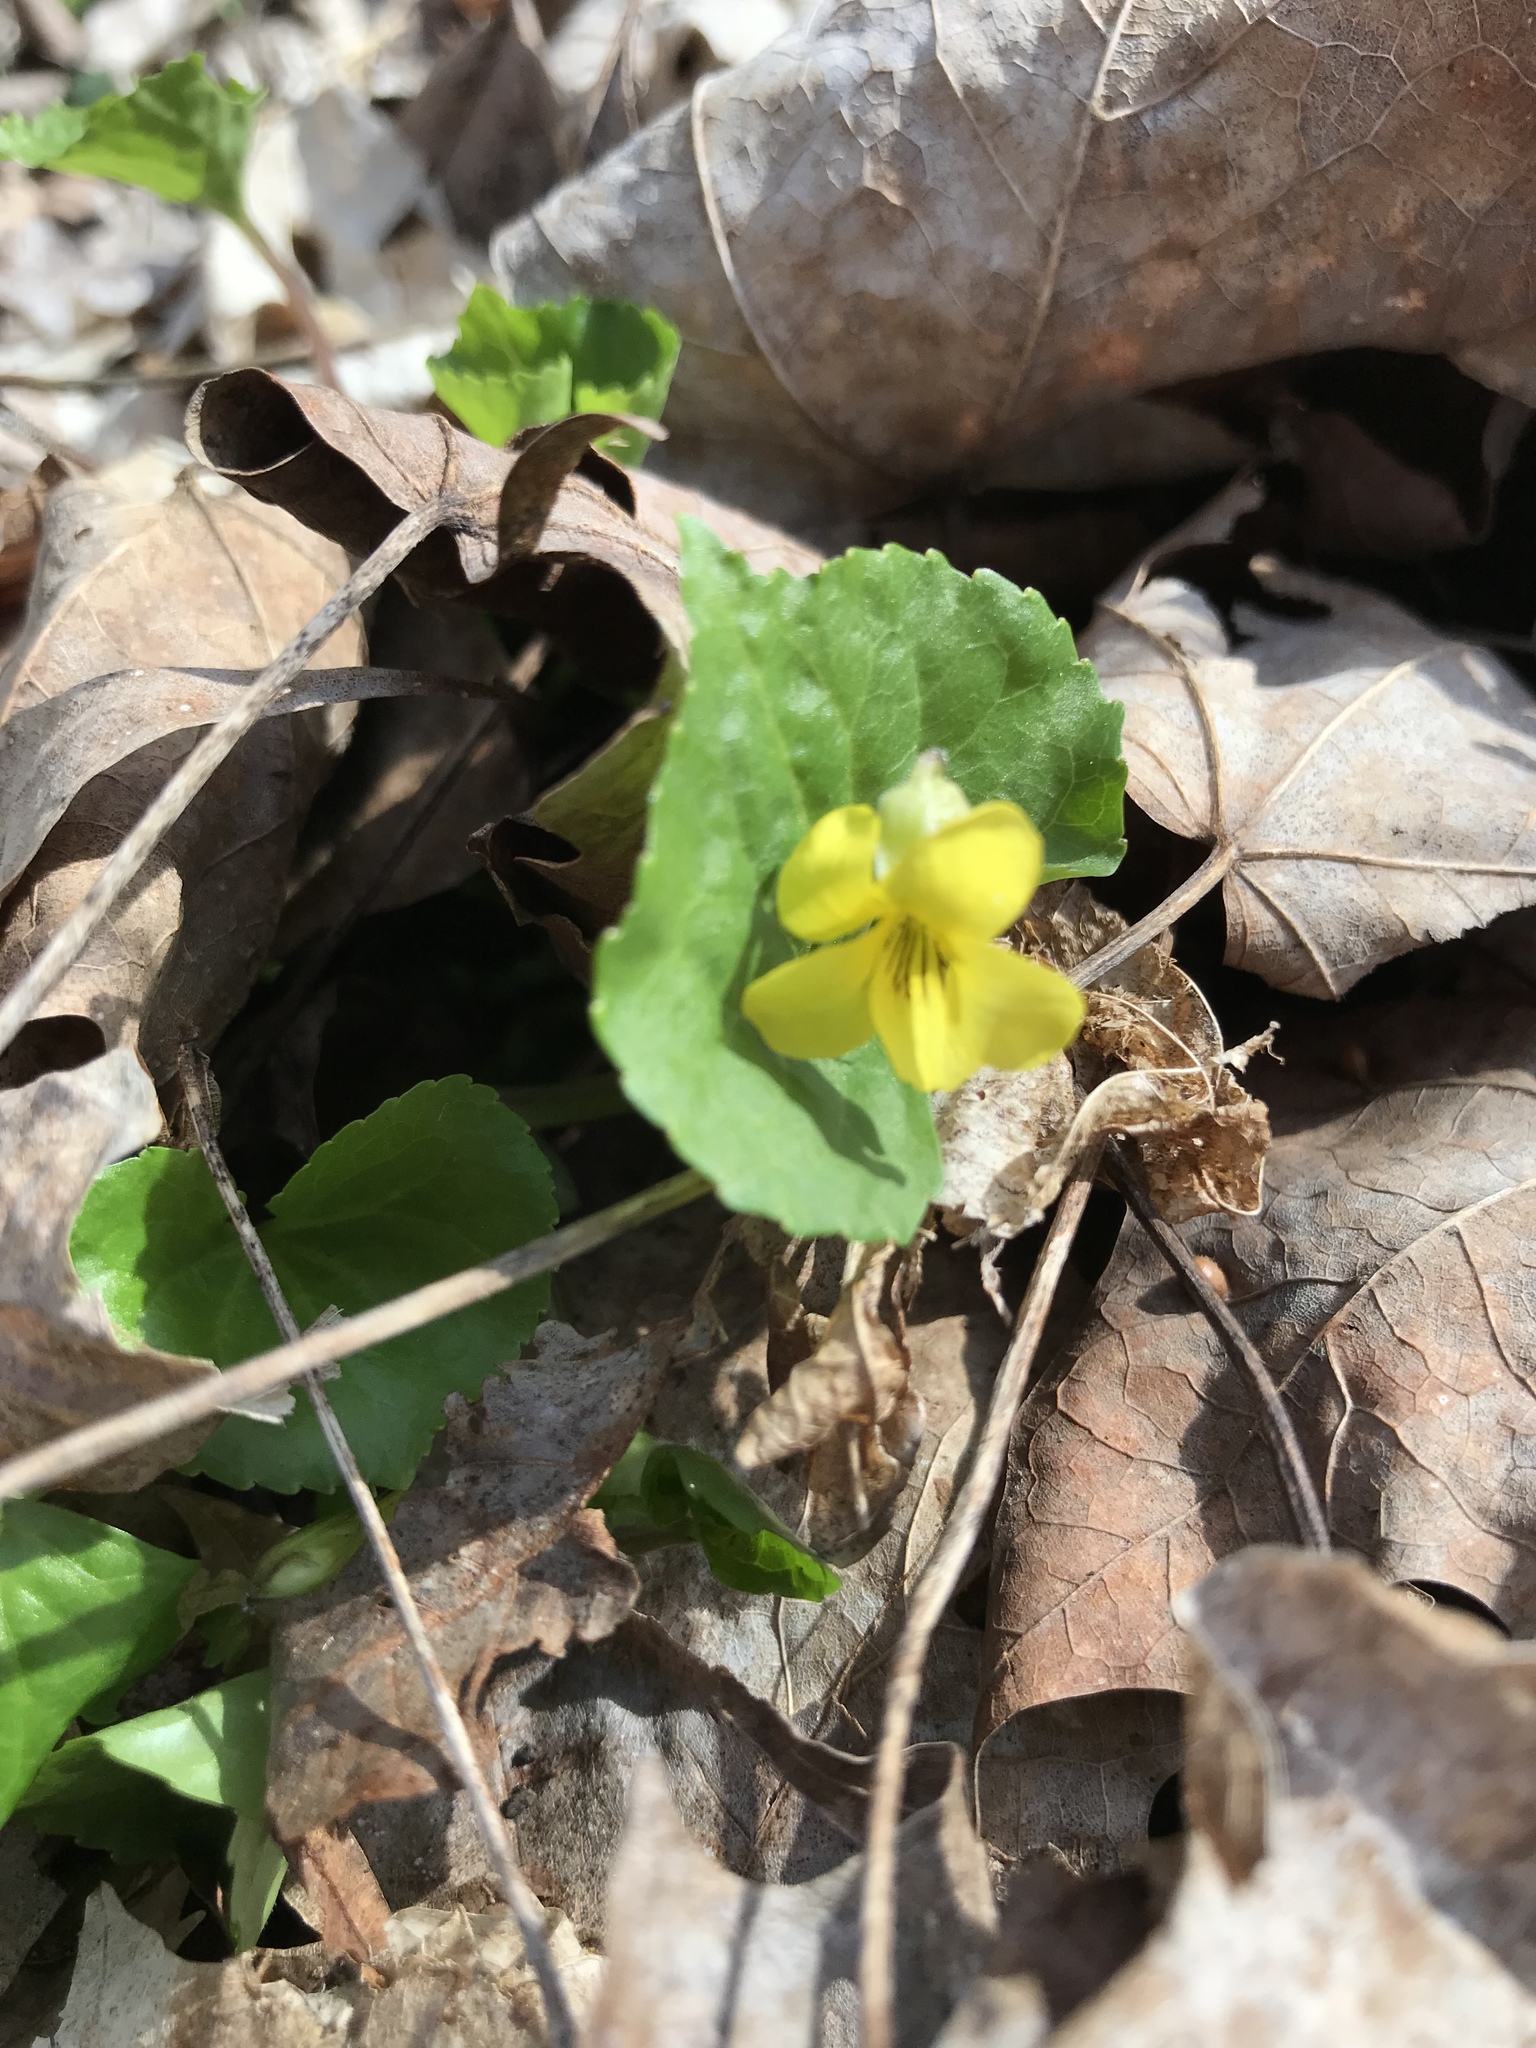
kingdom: Plantae
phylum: Tracheophyta
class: Magnoliopsida
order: Malpighiales
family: Violaceae
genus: Viola
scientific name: Viola eriocarpa
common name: Smooth yellow violet
